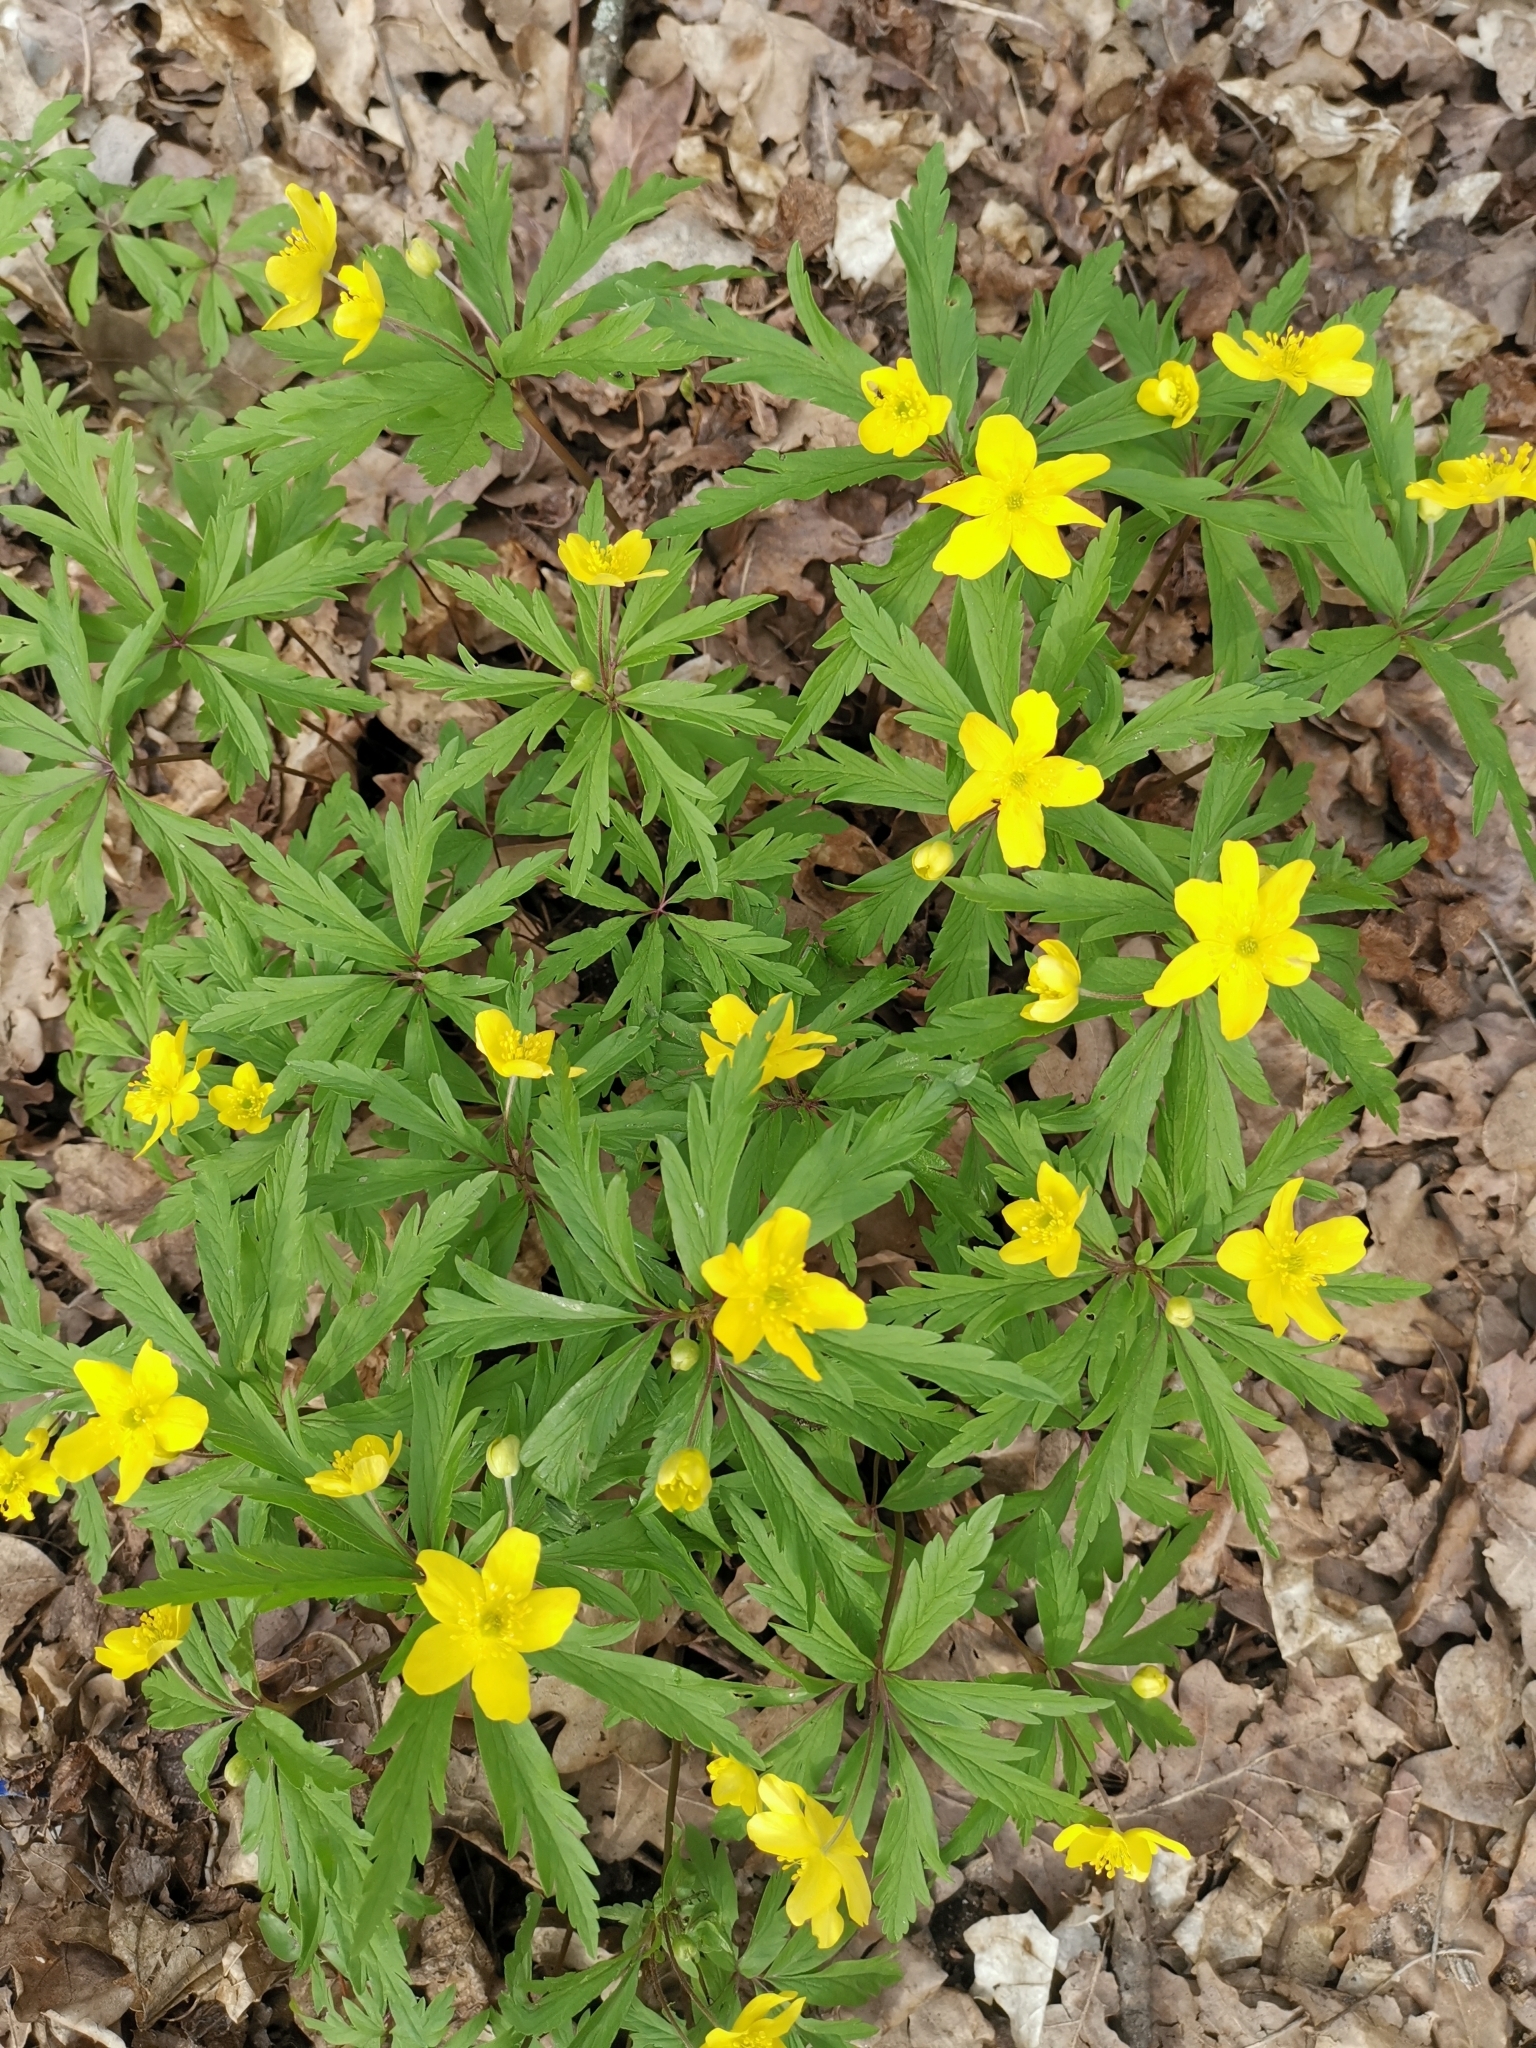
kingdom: Plantae
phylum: Tracheophyta
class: Magnoliopsida
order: Ranunculales
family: Ranunculaceae
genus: Anemone
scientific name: Anemone ranunculoides
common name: Yellow anemone
